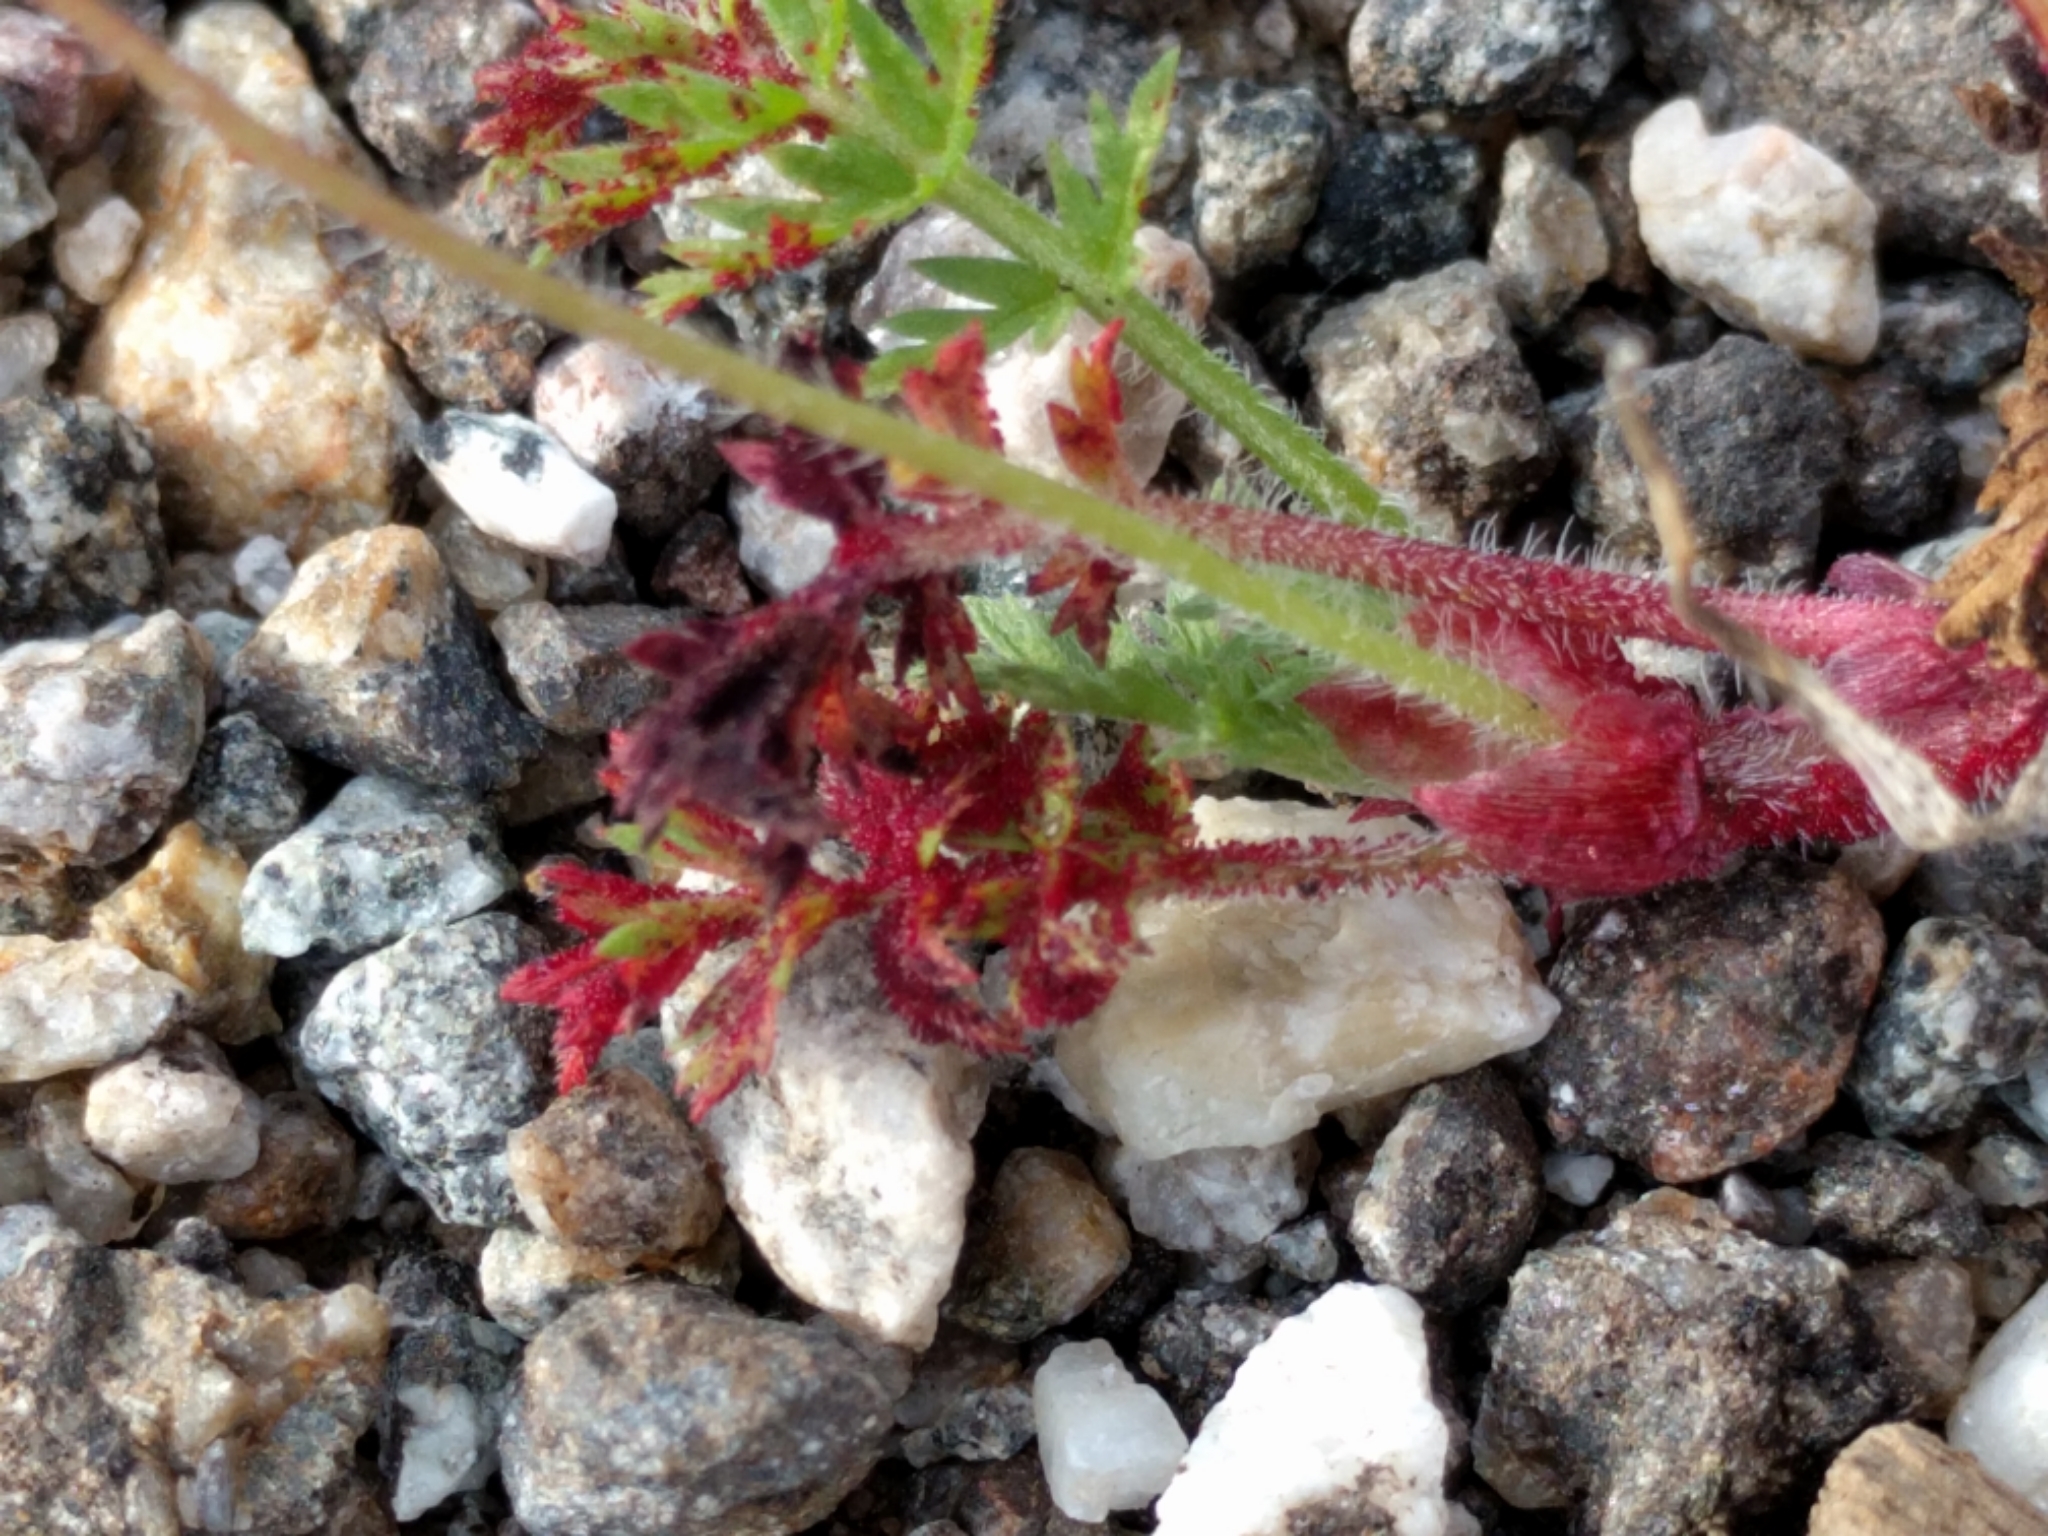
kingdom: Fungi
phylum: Chytridiomycota
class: Chytridiomycetes
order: Chytridiales
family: Synchytriaceae
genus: Synchytrium
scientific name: Synchytrium papillatum
